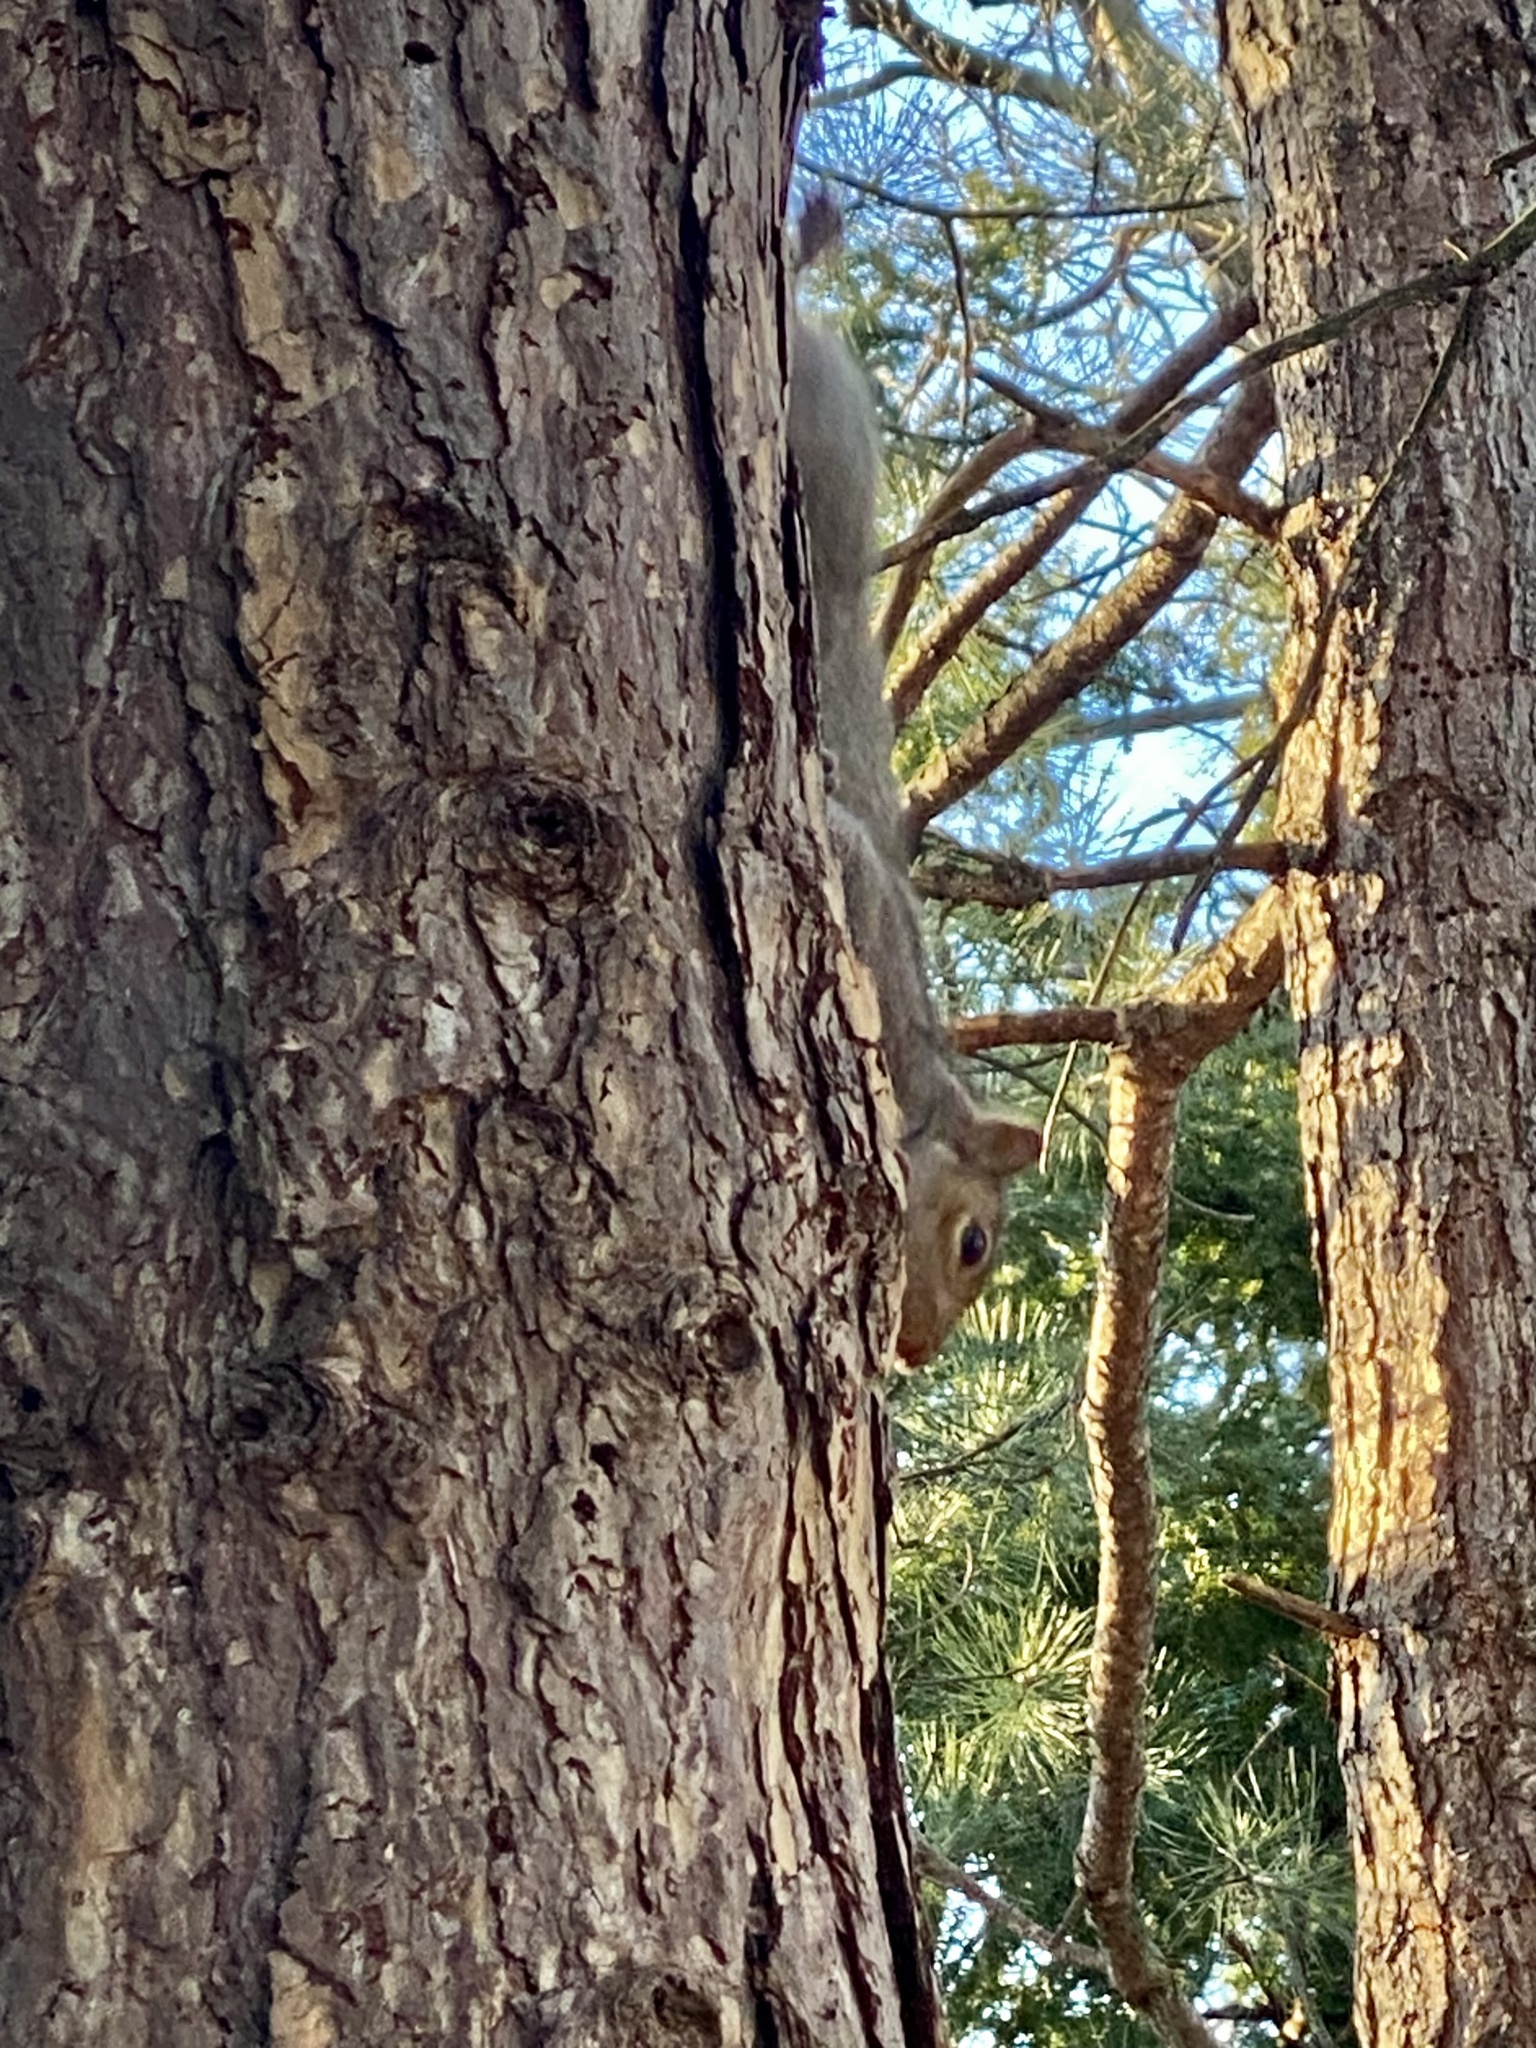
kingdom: Animalia
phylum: Chordata
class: Mammalia
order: Rodentia
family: Sciuridae
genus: Sciurus
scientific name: Sciurus carolinensis
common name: Eastern gray squirrel
